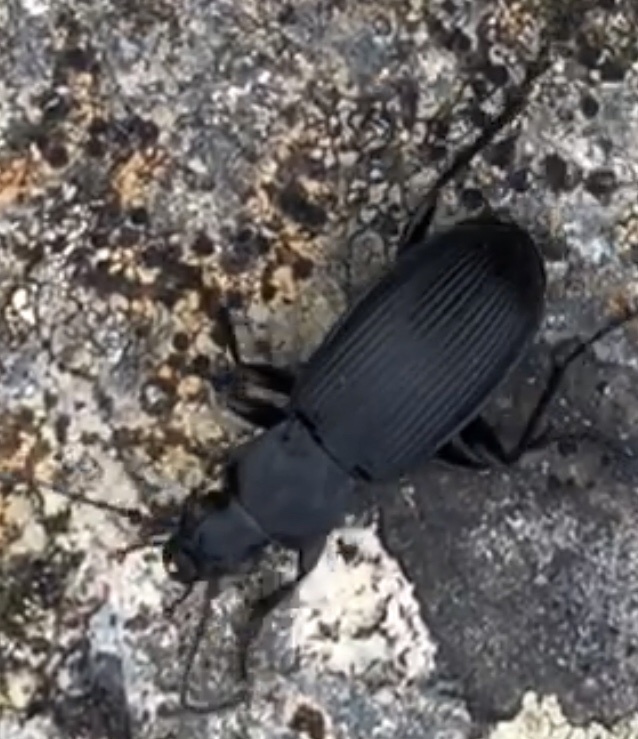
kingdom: Animalia
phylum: Arthropoda
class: Insecta
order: Coleoptera
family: Carabidae
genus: Pterostichus
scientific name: Pterostichus niger
